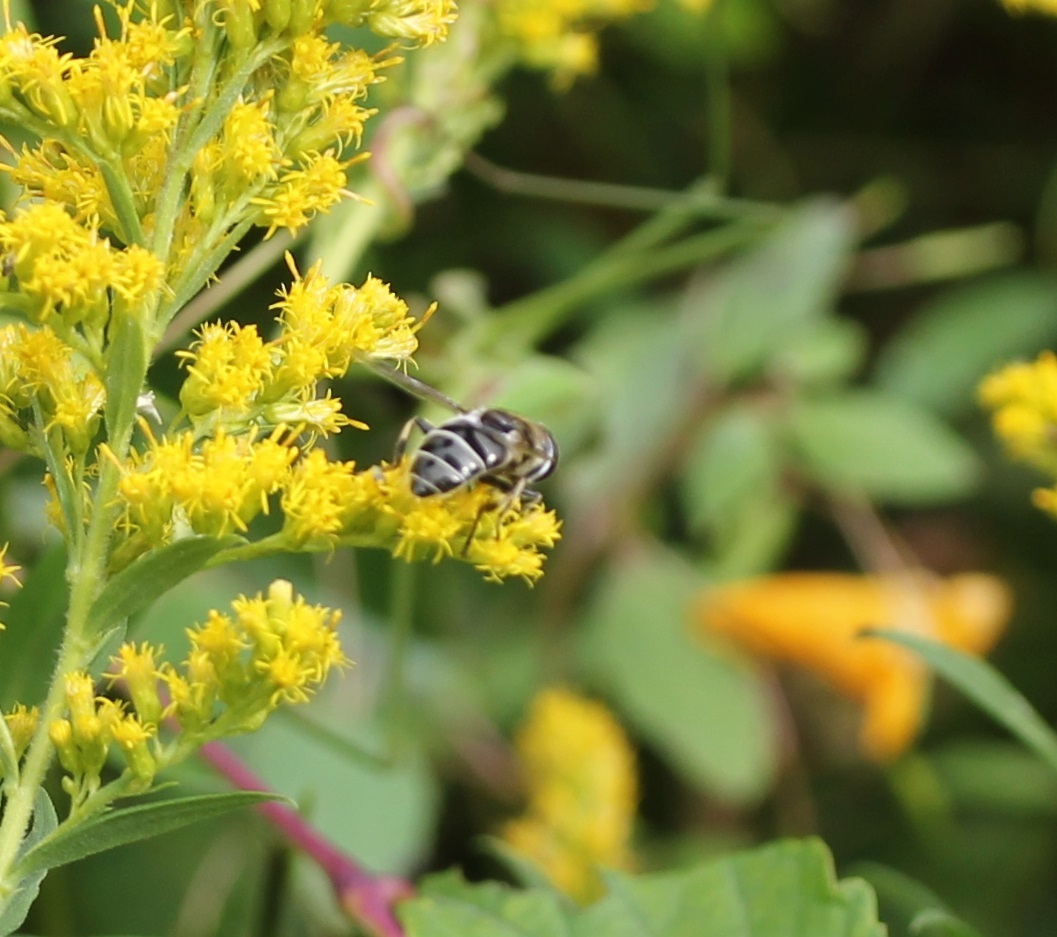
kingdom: Animalia
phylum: Arthropoda
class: Insecta
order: Diptera
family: Syrphidae
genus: Eristalis
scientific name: Eristalis dimidiata
